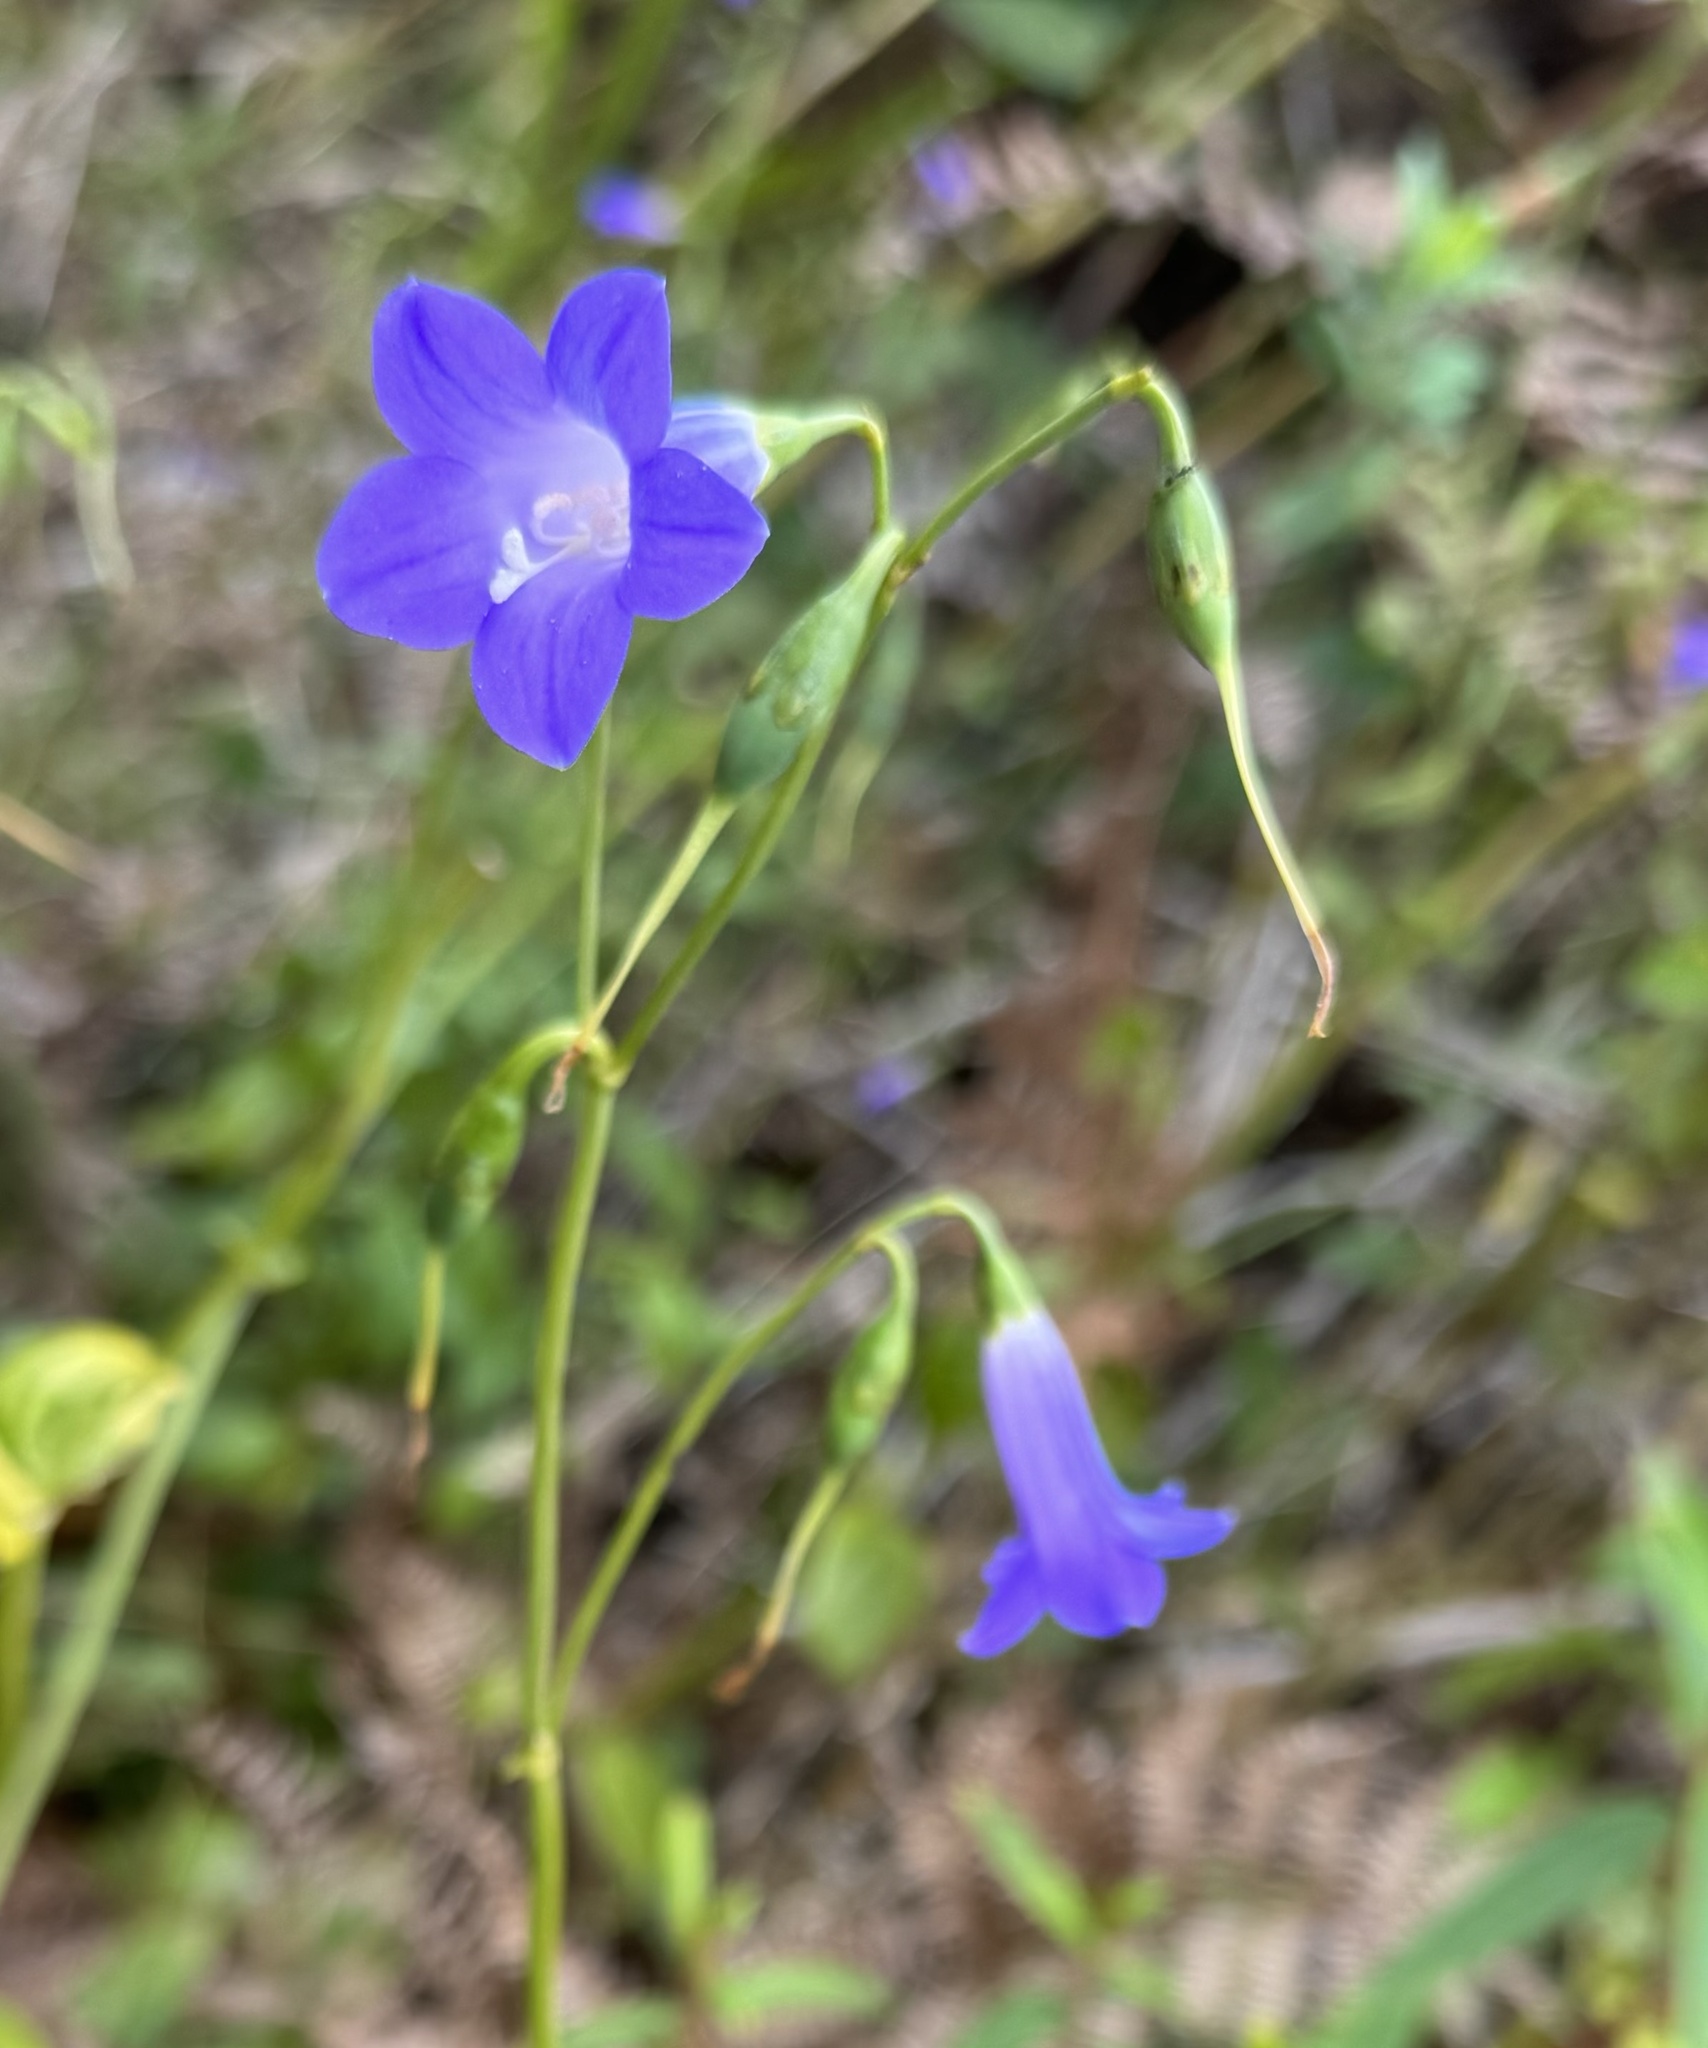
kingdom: Plantae
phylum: Tracheophyta
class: Magnoliopsida
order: Gentianales
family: Gentianaceae
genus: Chelonanthus
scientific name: Chelonanthus purpurascens
